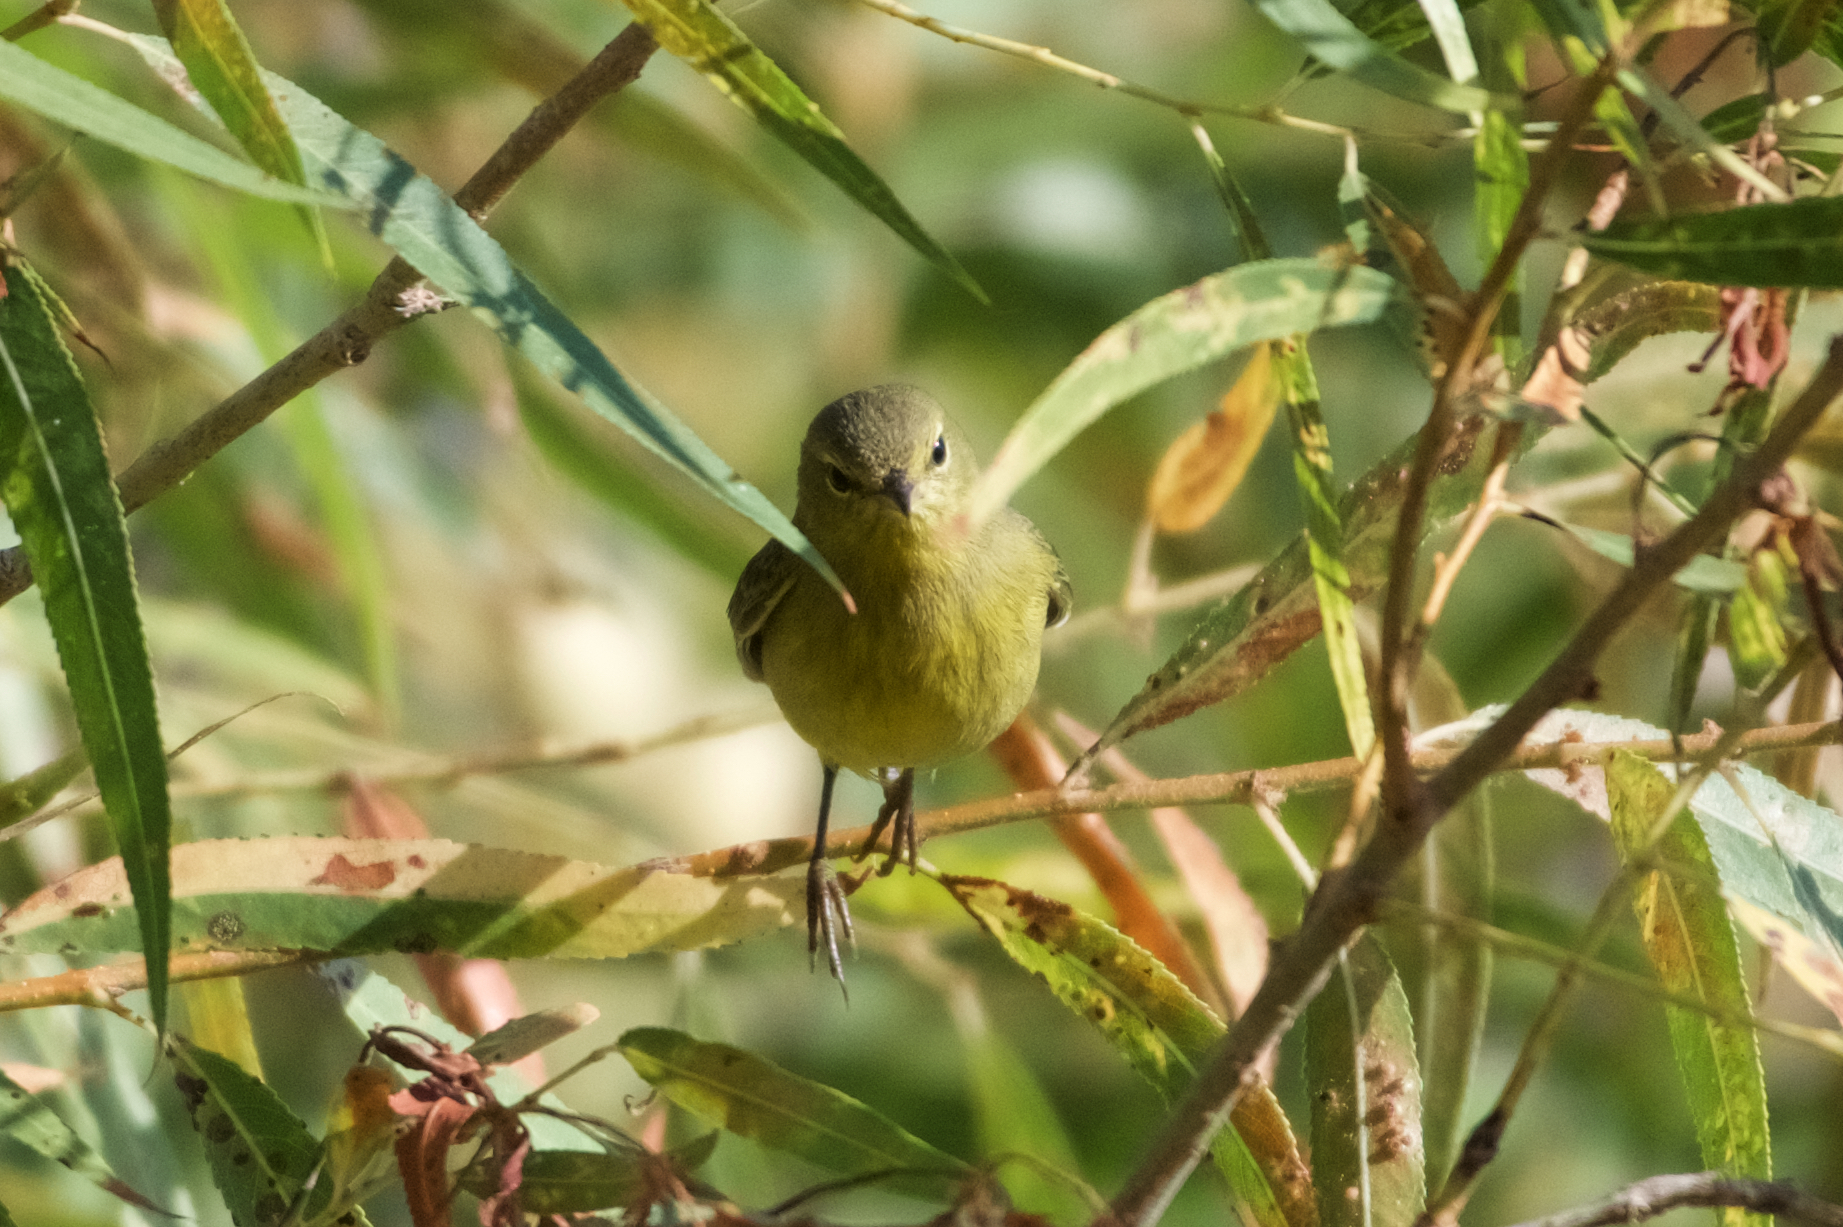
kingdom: Animalia
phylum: Chordata
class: Aves
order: Passeriformes
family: Parulidae
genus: Leiothlypis
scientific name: Leiothlypis celata
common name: Orange-crowned warbler
